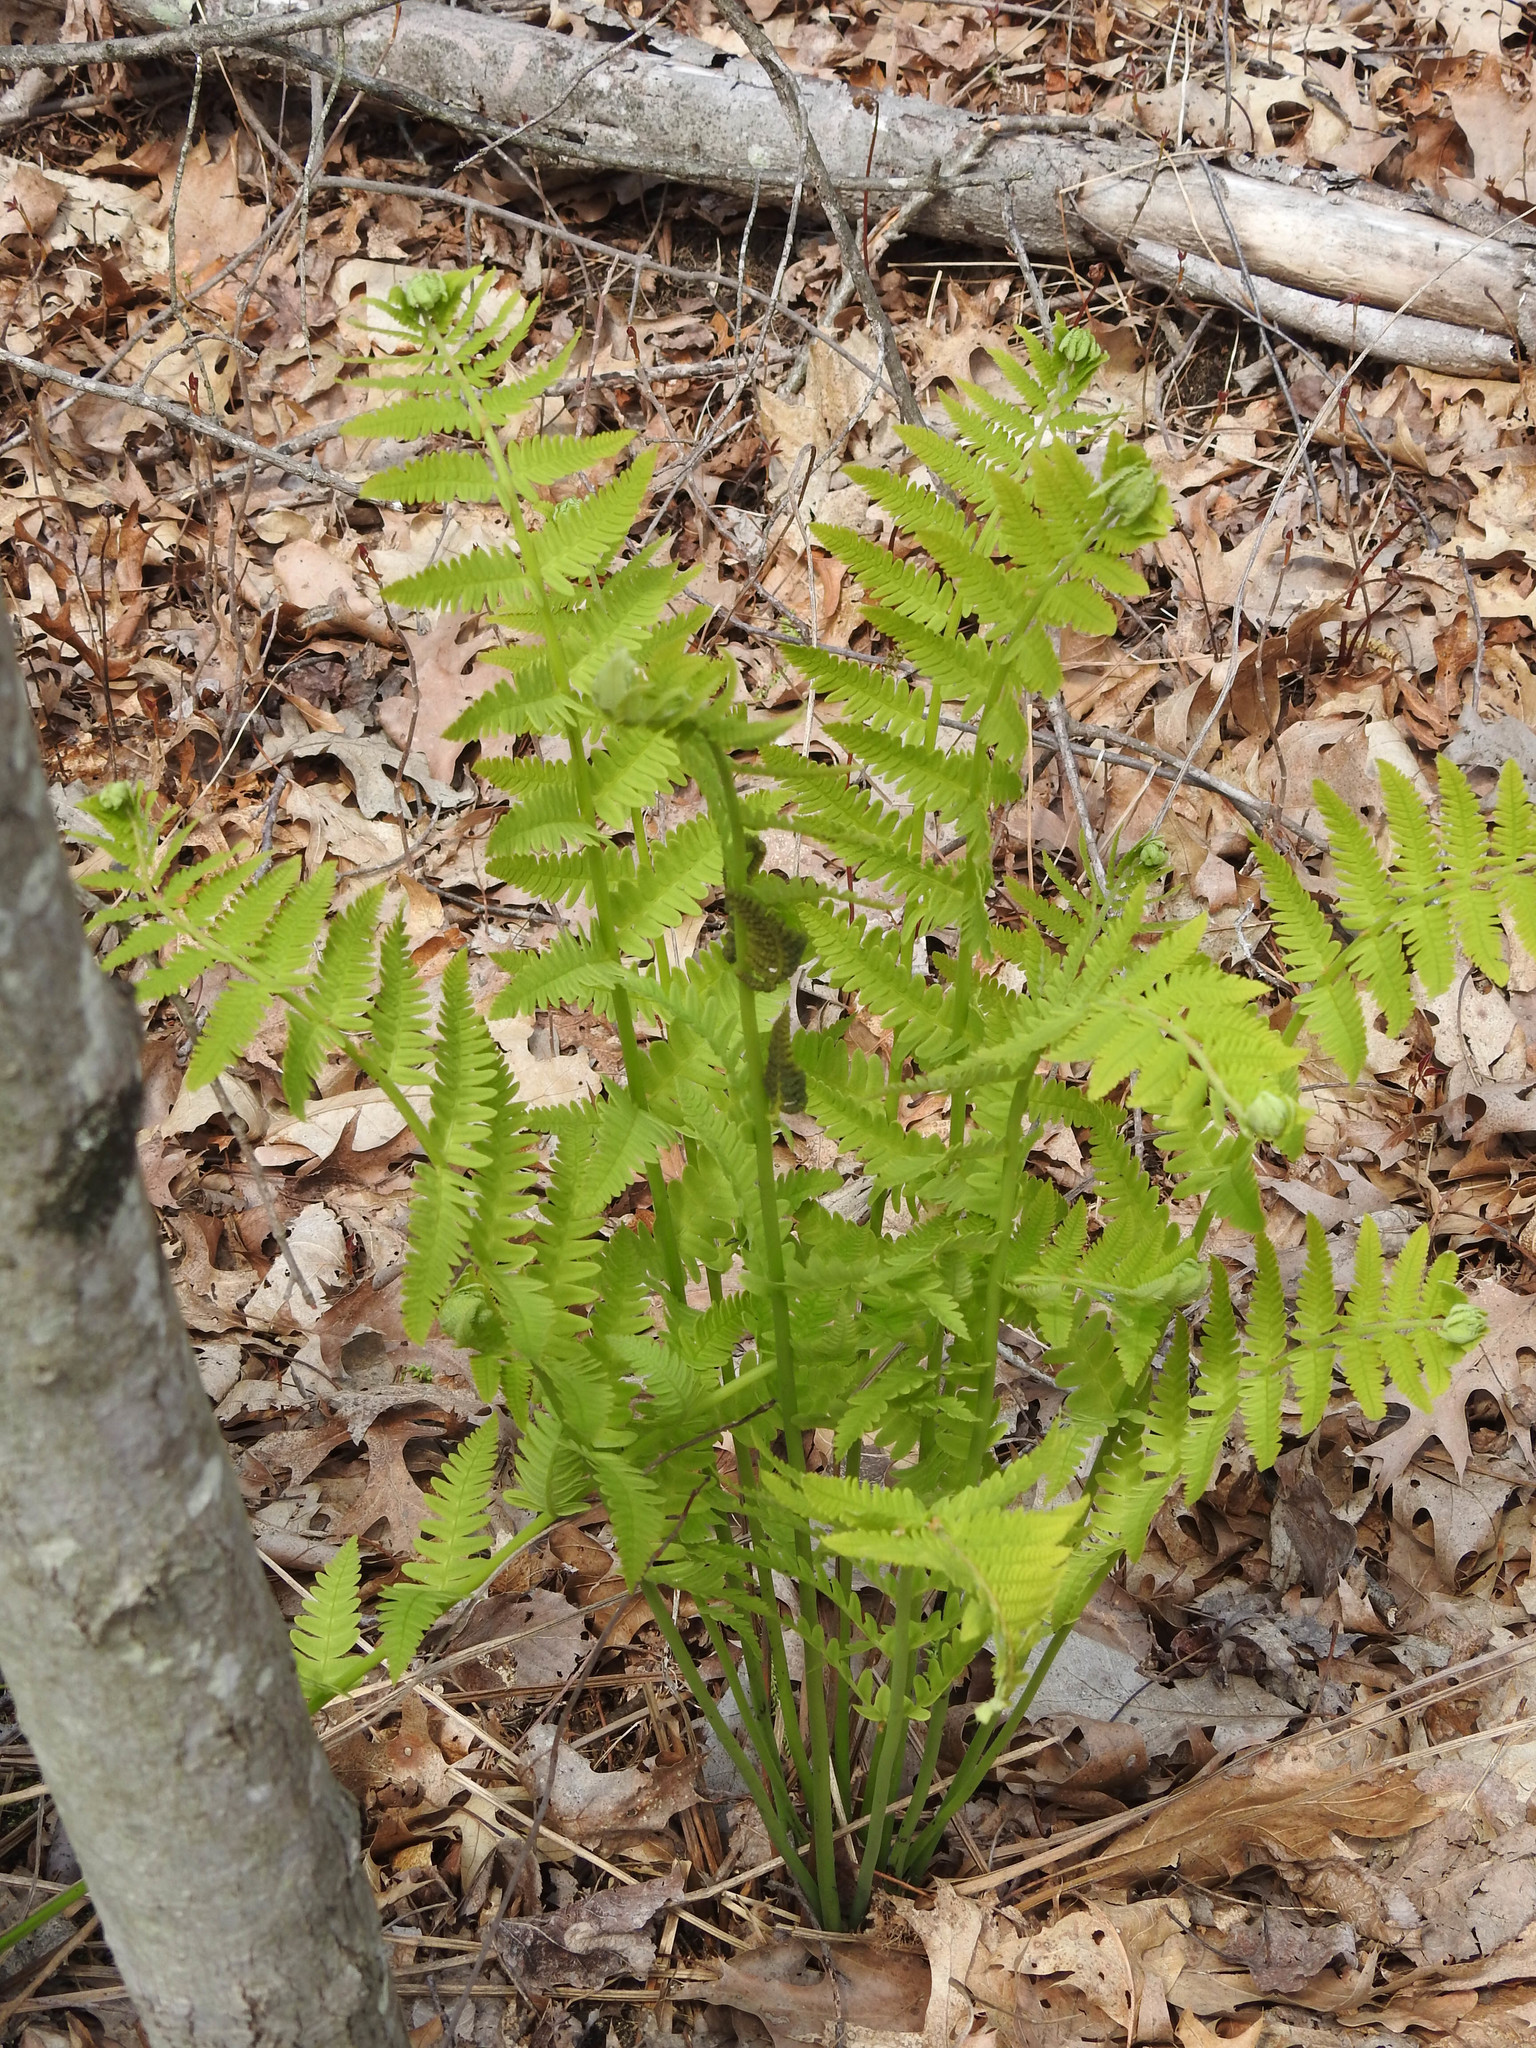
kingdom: Plantae
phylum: Tracheophyta
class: Polypodiopsida
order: Osmundales
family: Osmundaceae
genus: Claytosmunda
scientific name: Claytosmunda claytoniana
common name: Clayton's fern
